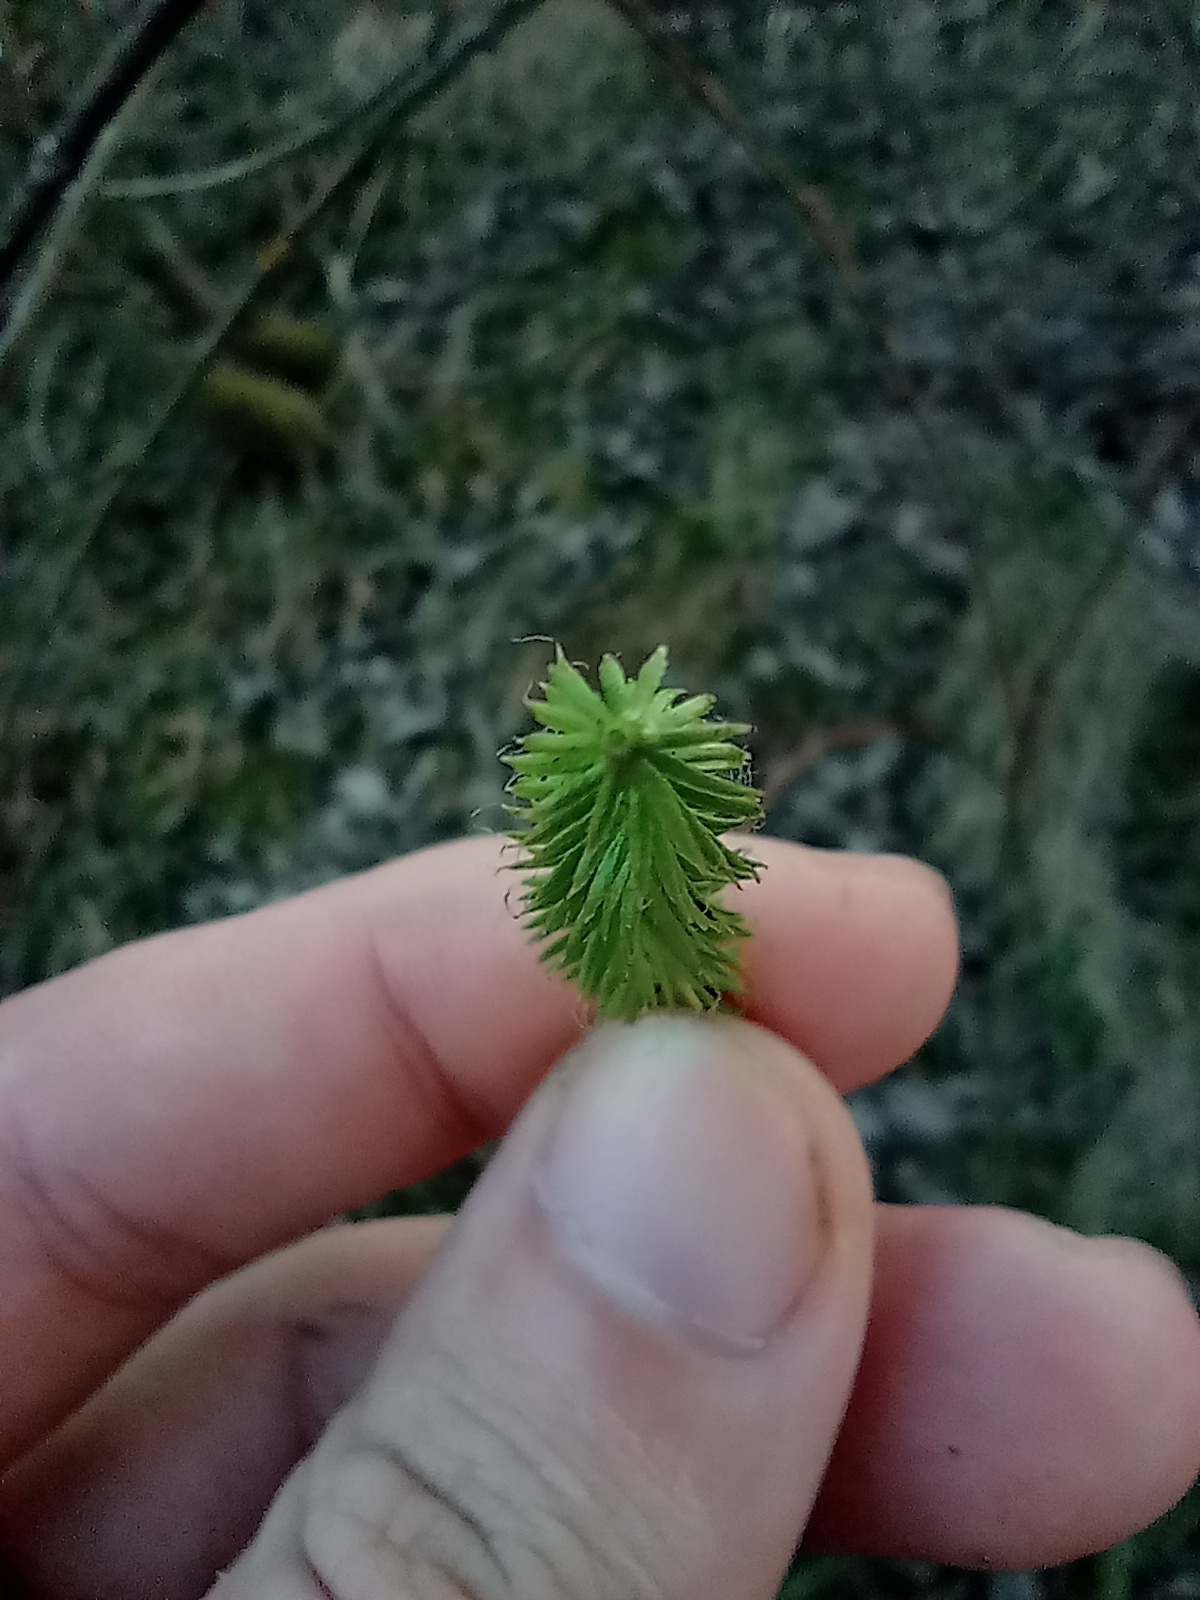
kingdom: Plantae
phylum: Tracheophyta
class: Lycopodiopsida
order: Lycopodiales
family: Lycopodiaceae
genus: Lycopodium
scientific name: Lycopodium clavatum
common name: Stag's-horn clubmoss
